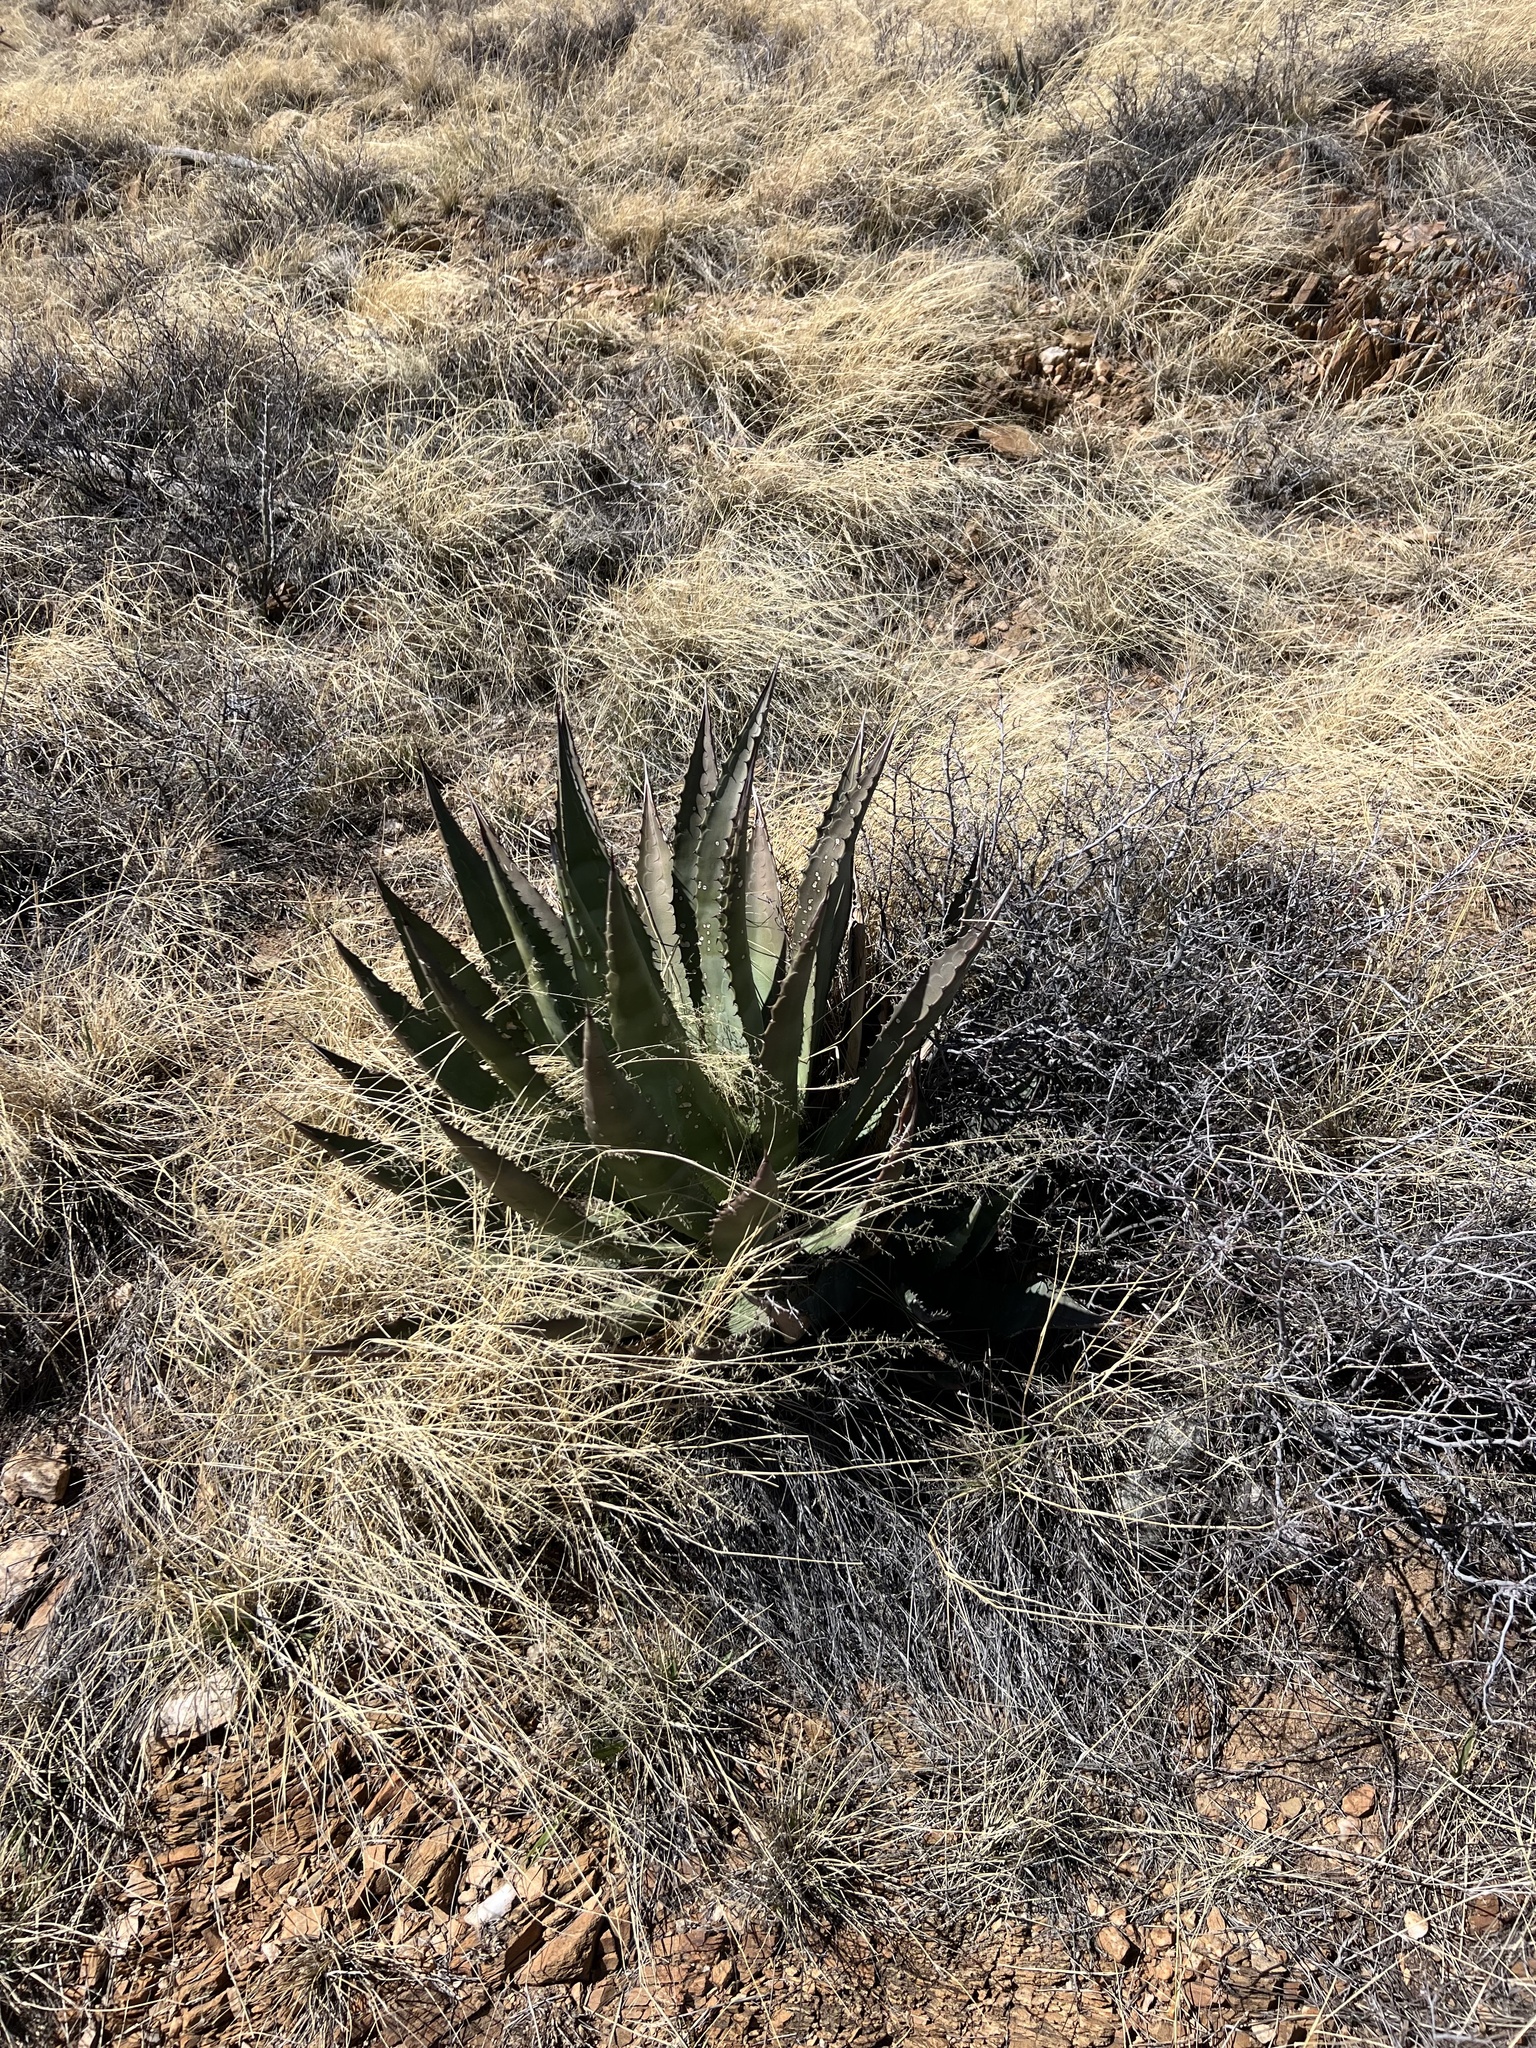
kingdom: Plantae
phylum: Tracheophyta
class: Liliopsida
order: Asparagales
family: Asparagaceae
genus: Agave
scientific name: Agave palmeri
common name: Palmer agave
